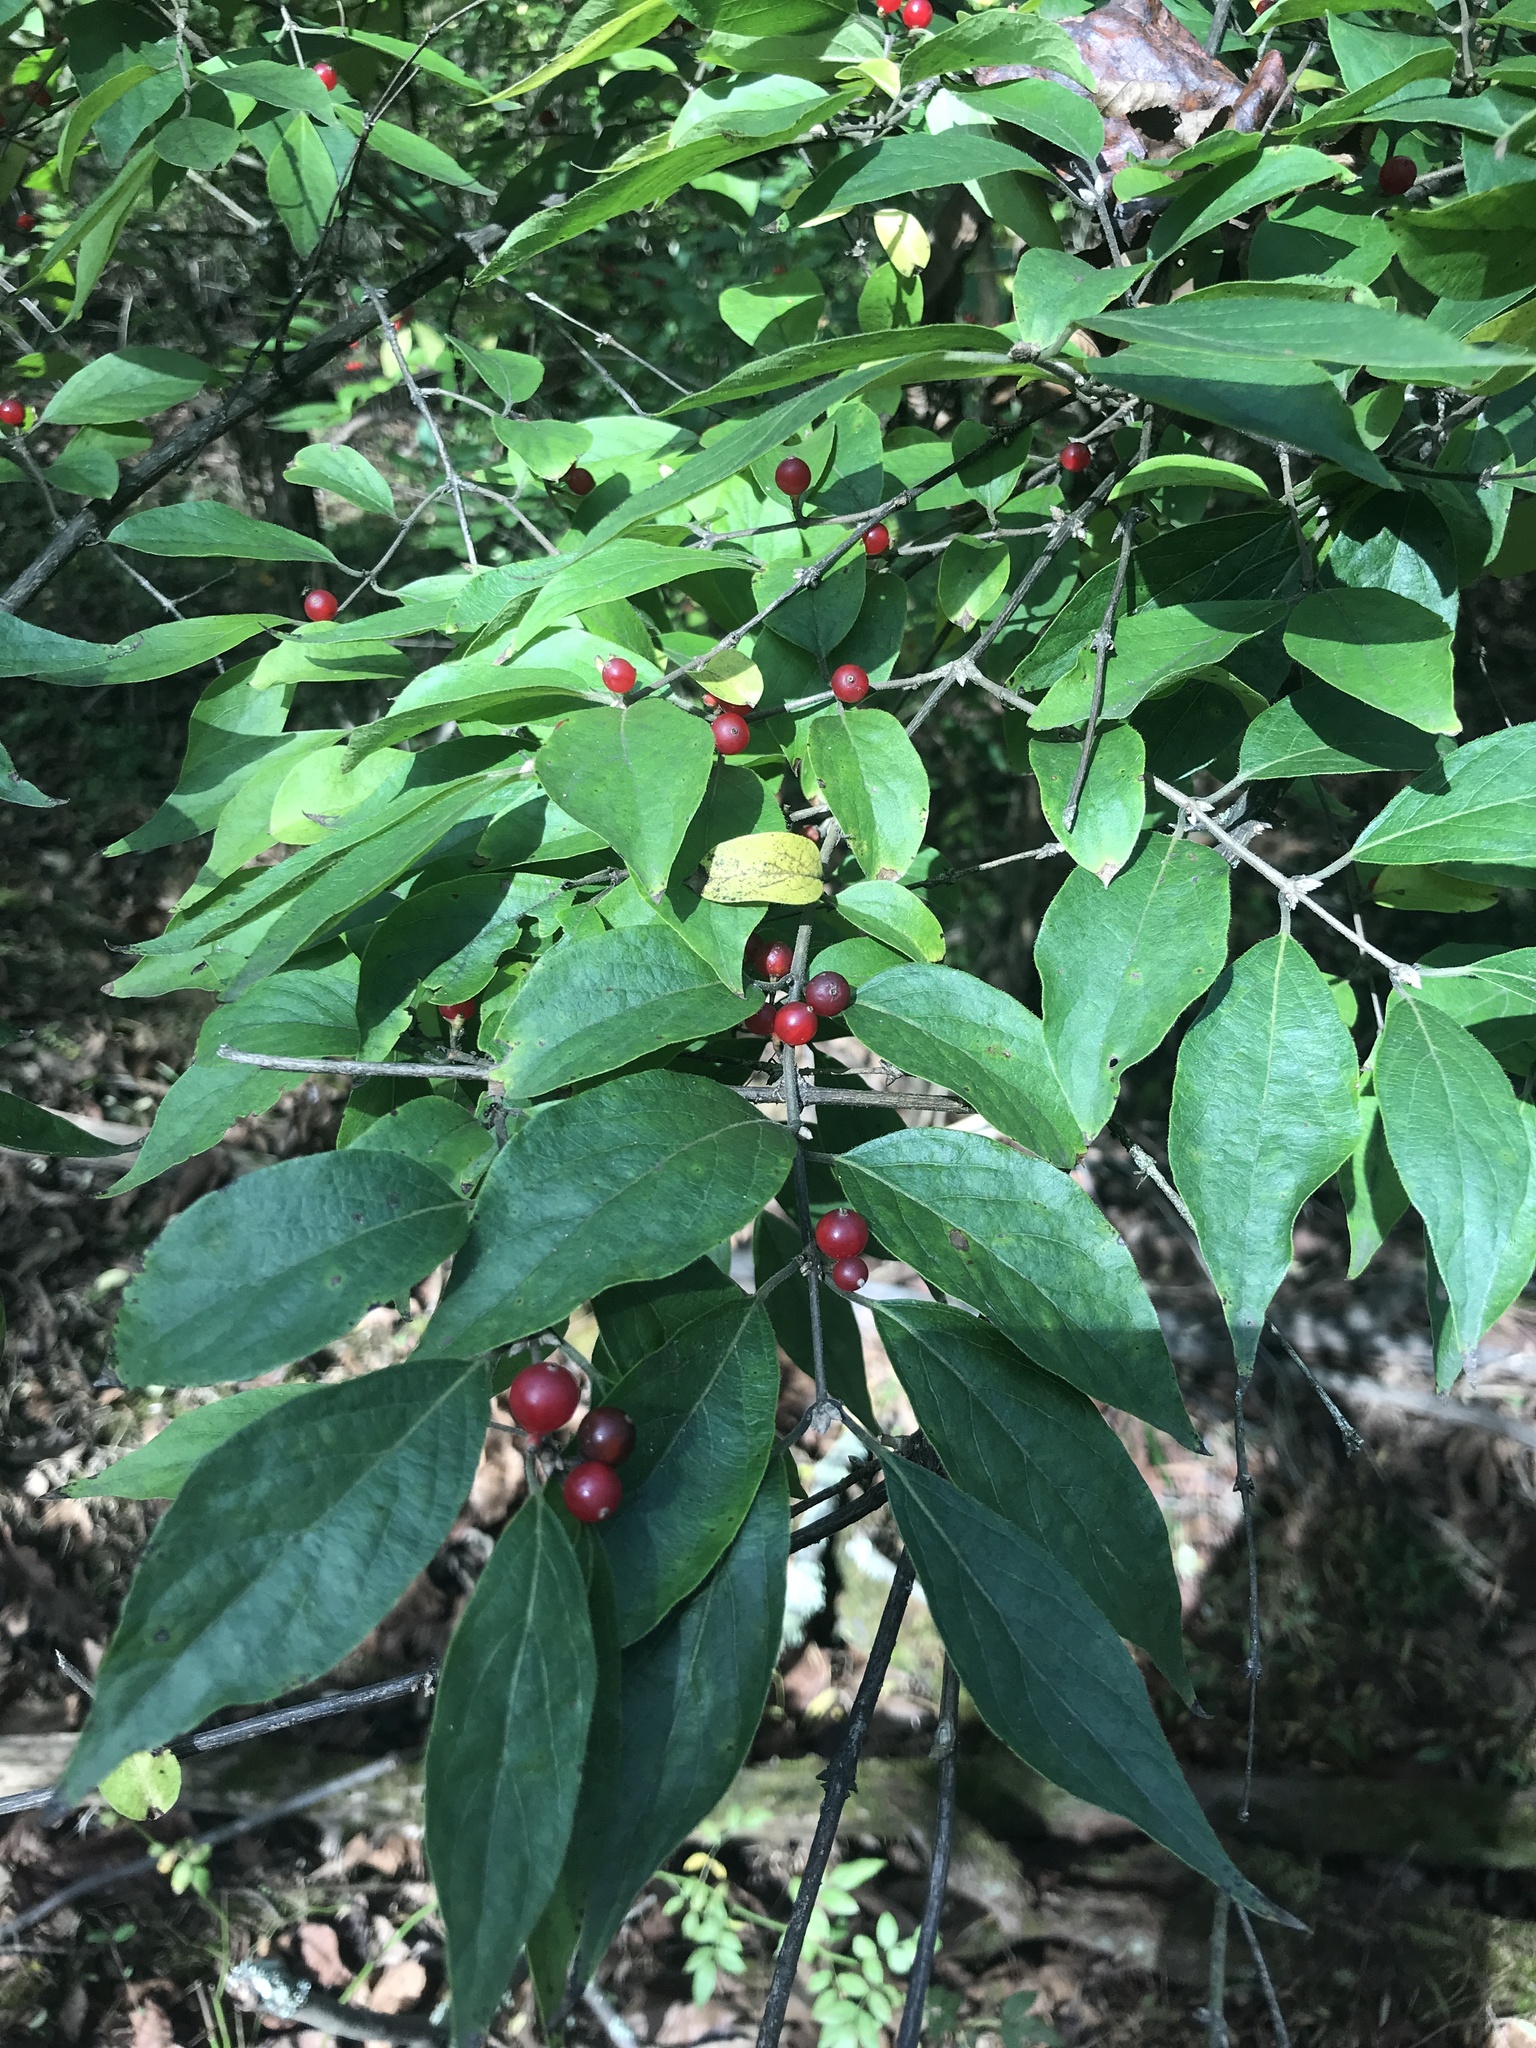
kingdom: Plantae
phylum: Tracheophyta
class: Magnoliopsida
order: Dipsacales
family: Caprifoliaceae
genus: Lonicera
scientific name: Lonicera maackii
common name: Amur honeysuckle
